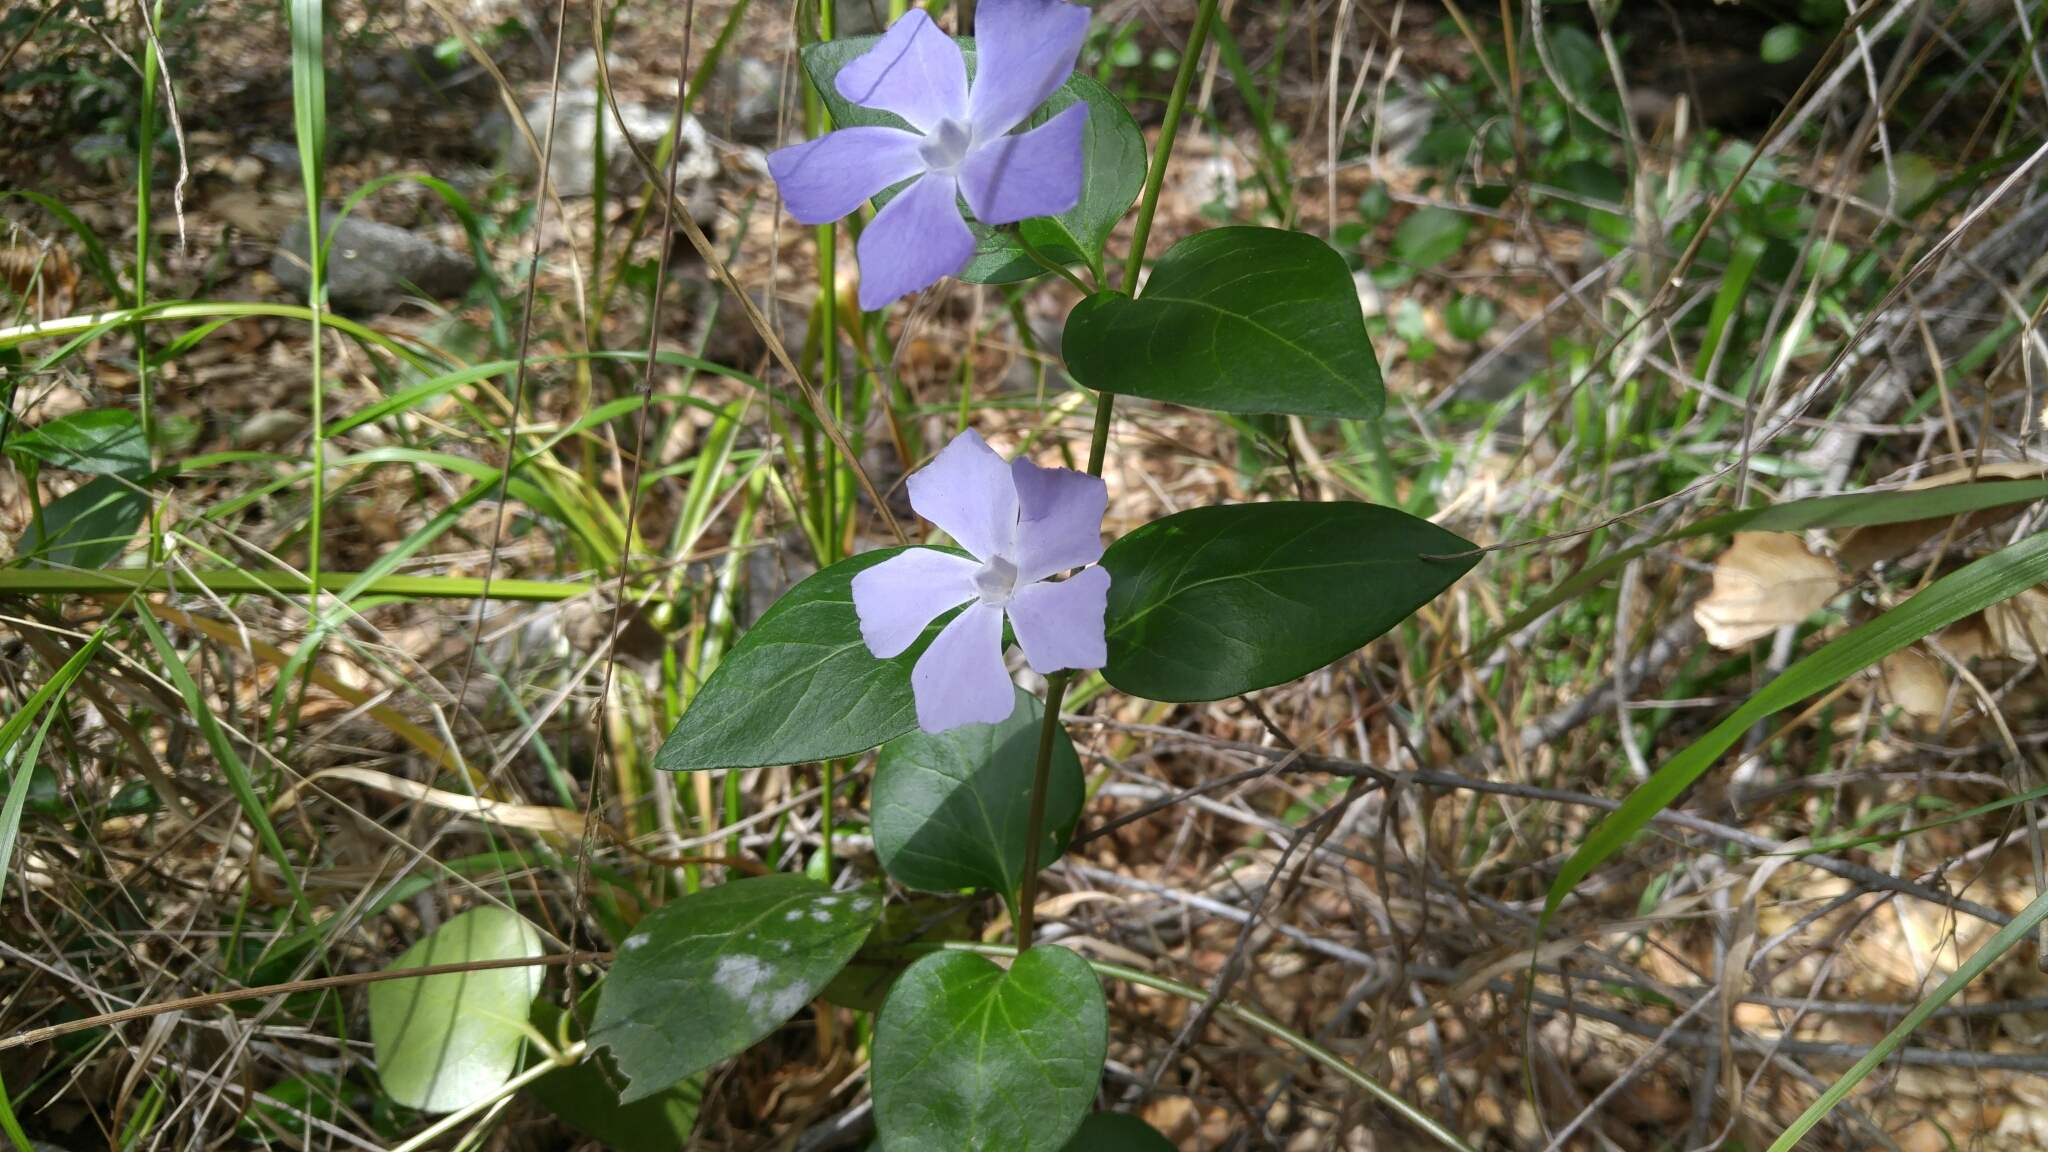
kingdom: Plantae
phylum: Tracheophyta
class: Magnoliopsida
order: Gentianales
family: Apocynaceae
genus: Vinca
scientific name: Vinca major
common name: Greater periwinkle
